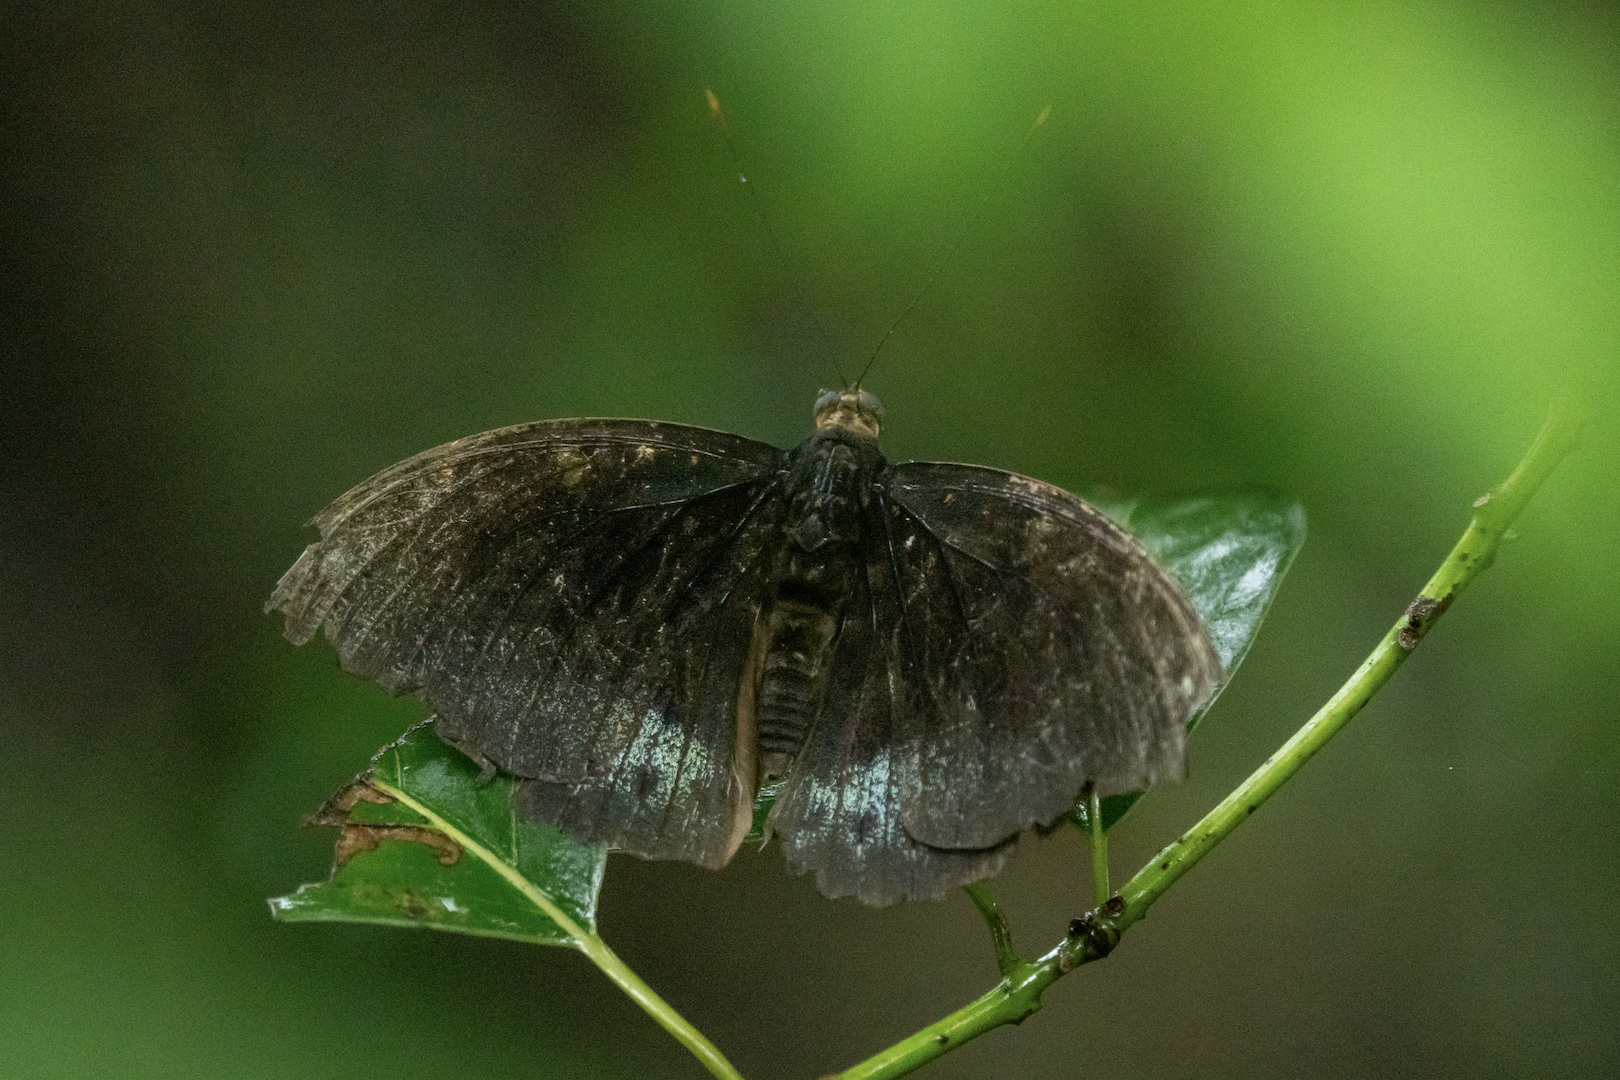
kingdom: Animalia
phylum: Arthropoda
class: Insecta
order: Lepidoptera
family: Nymphalidae
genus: Lexias
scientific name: Lexias pardalis
